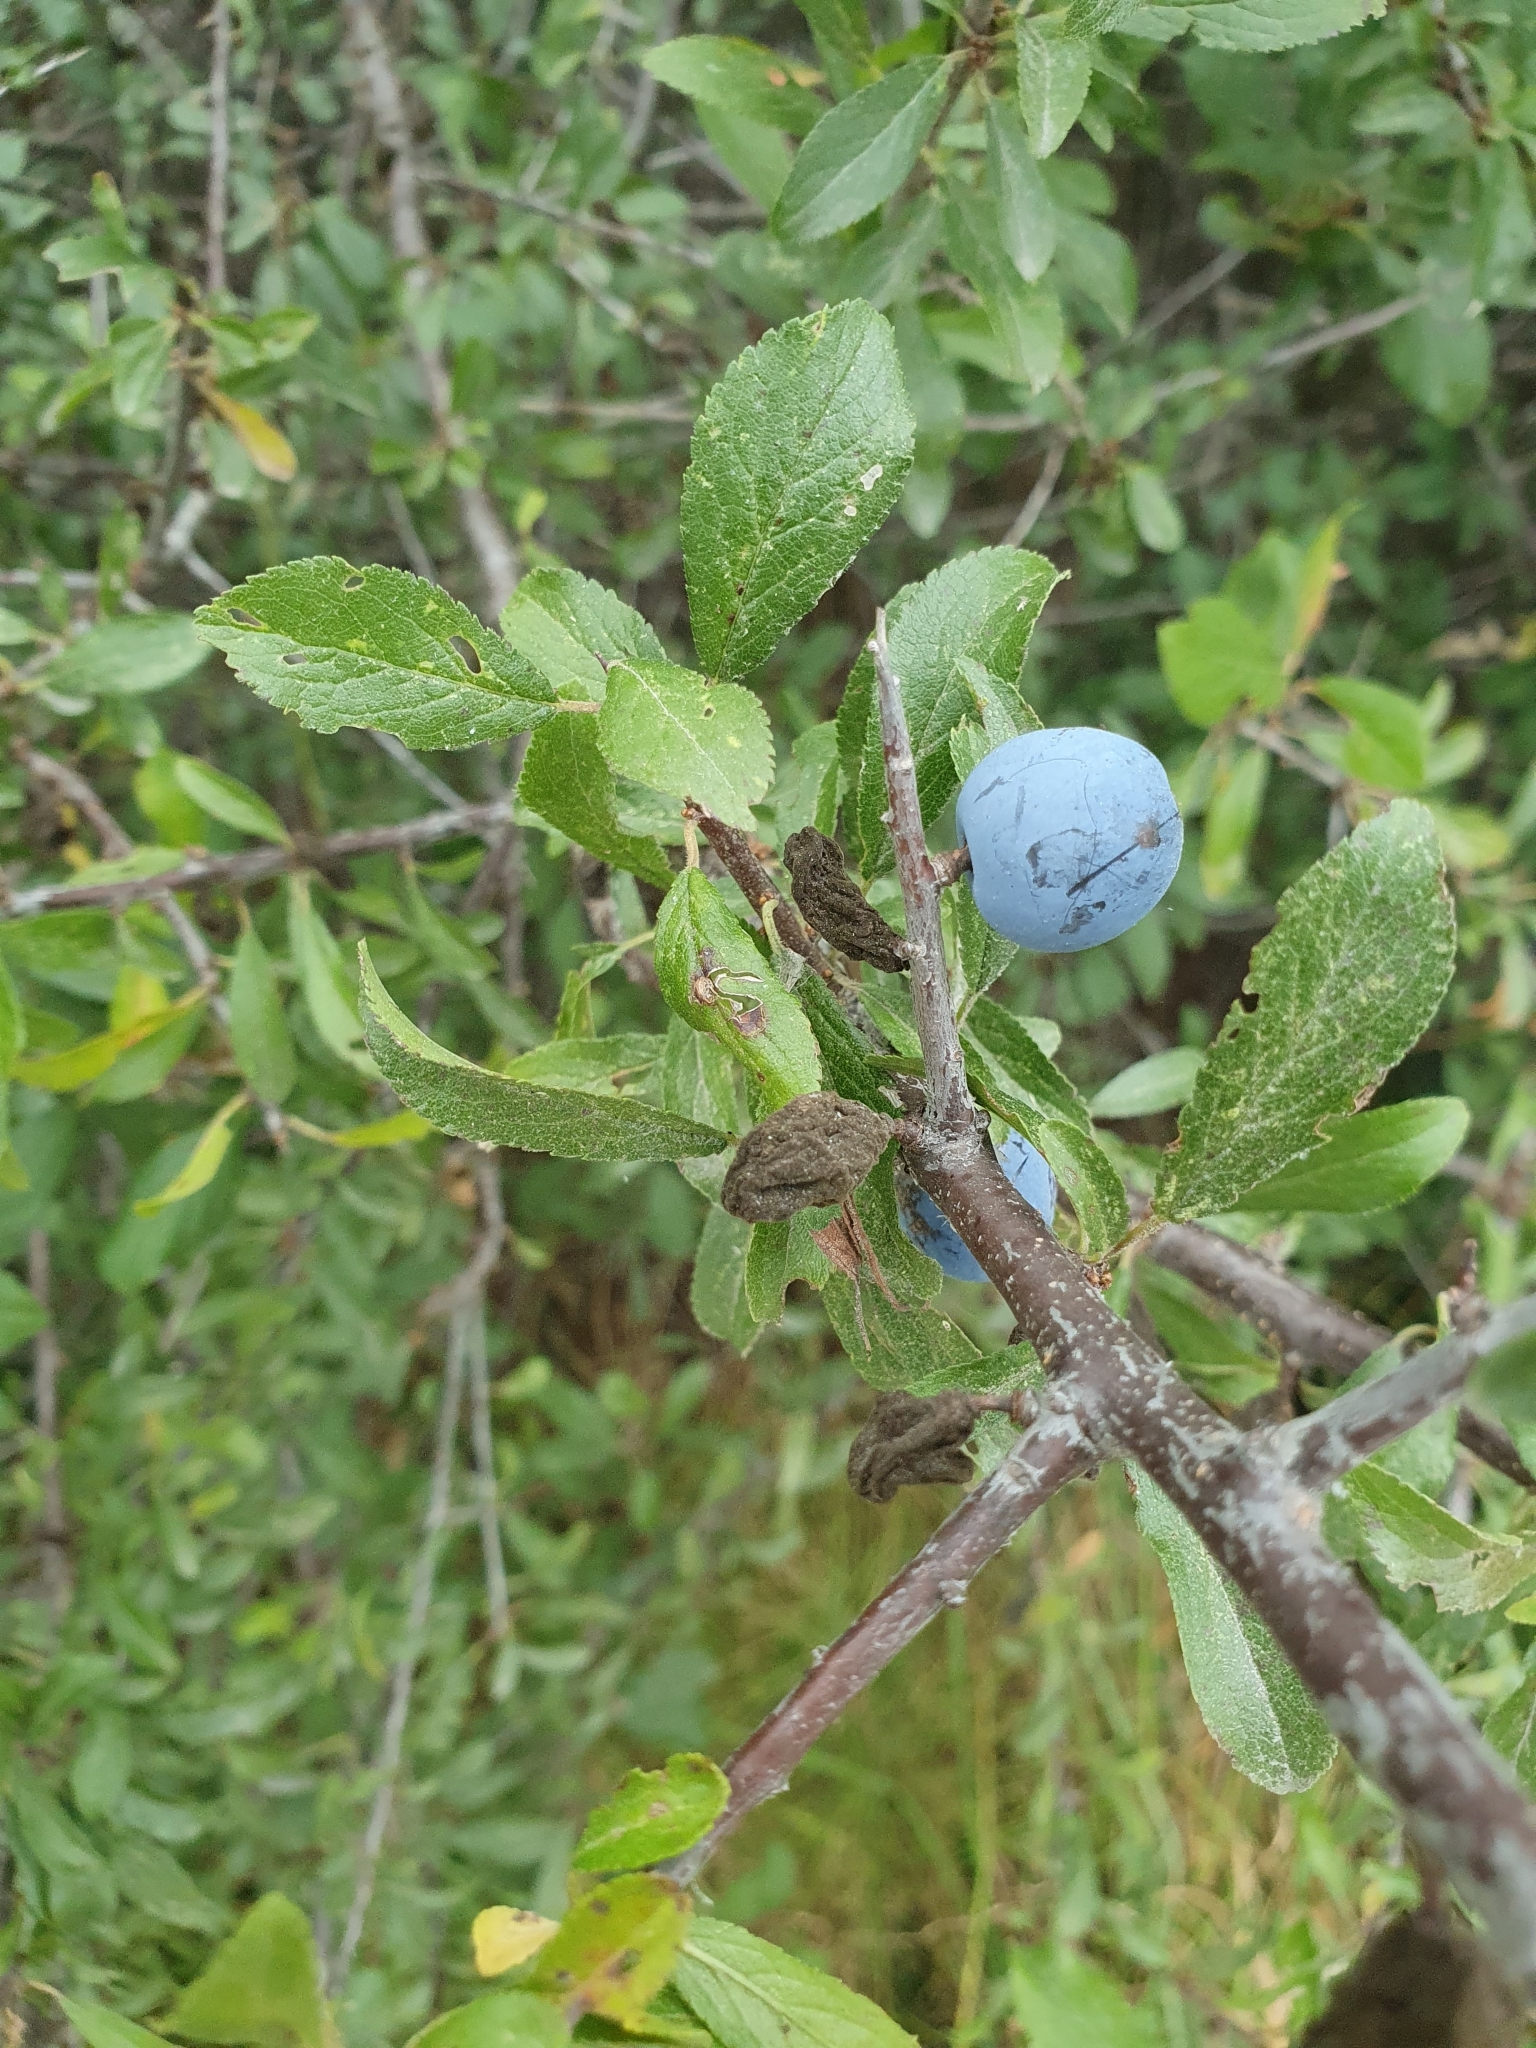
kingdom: Plantae
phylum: Tracheophyta
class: Magnoliopsida
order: Rosales
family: Rosaceae
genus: Prunus
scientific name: Prunus spinosa
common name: Blackthorn
